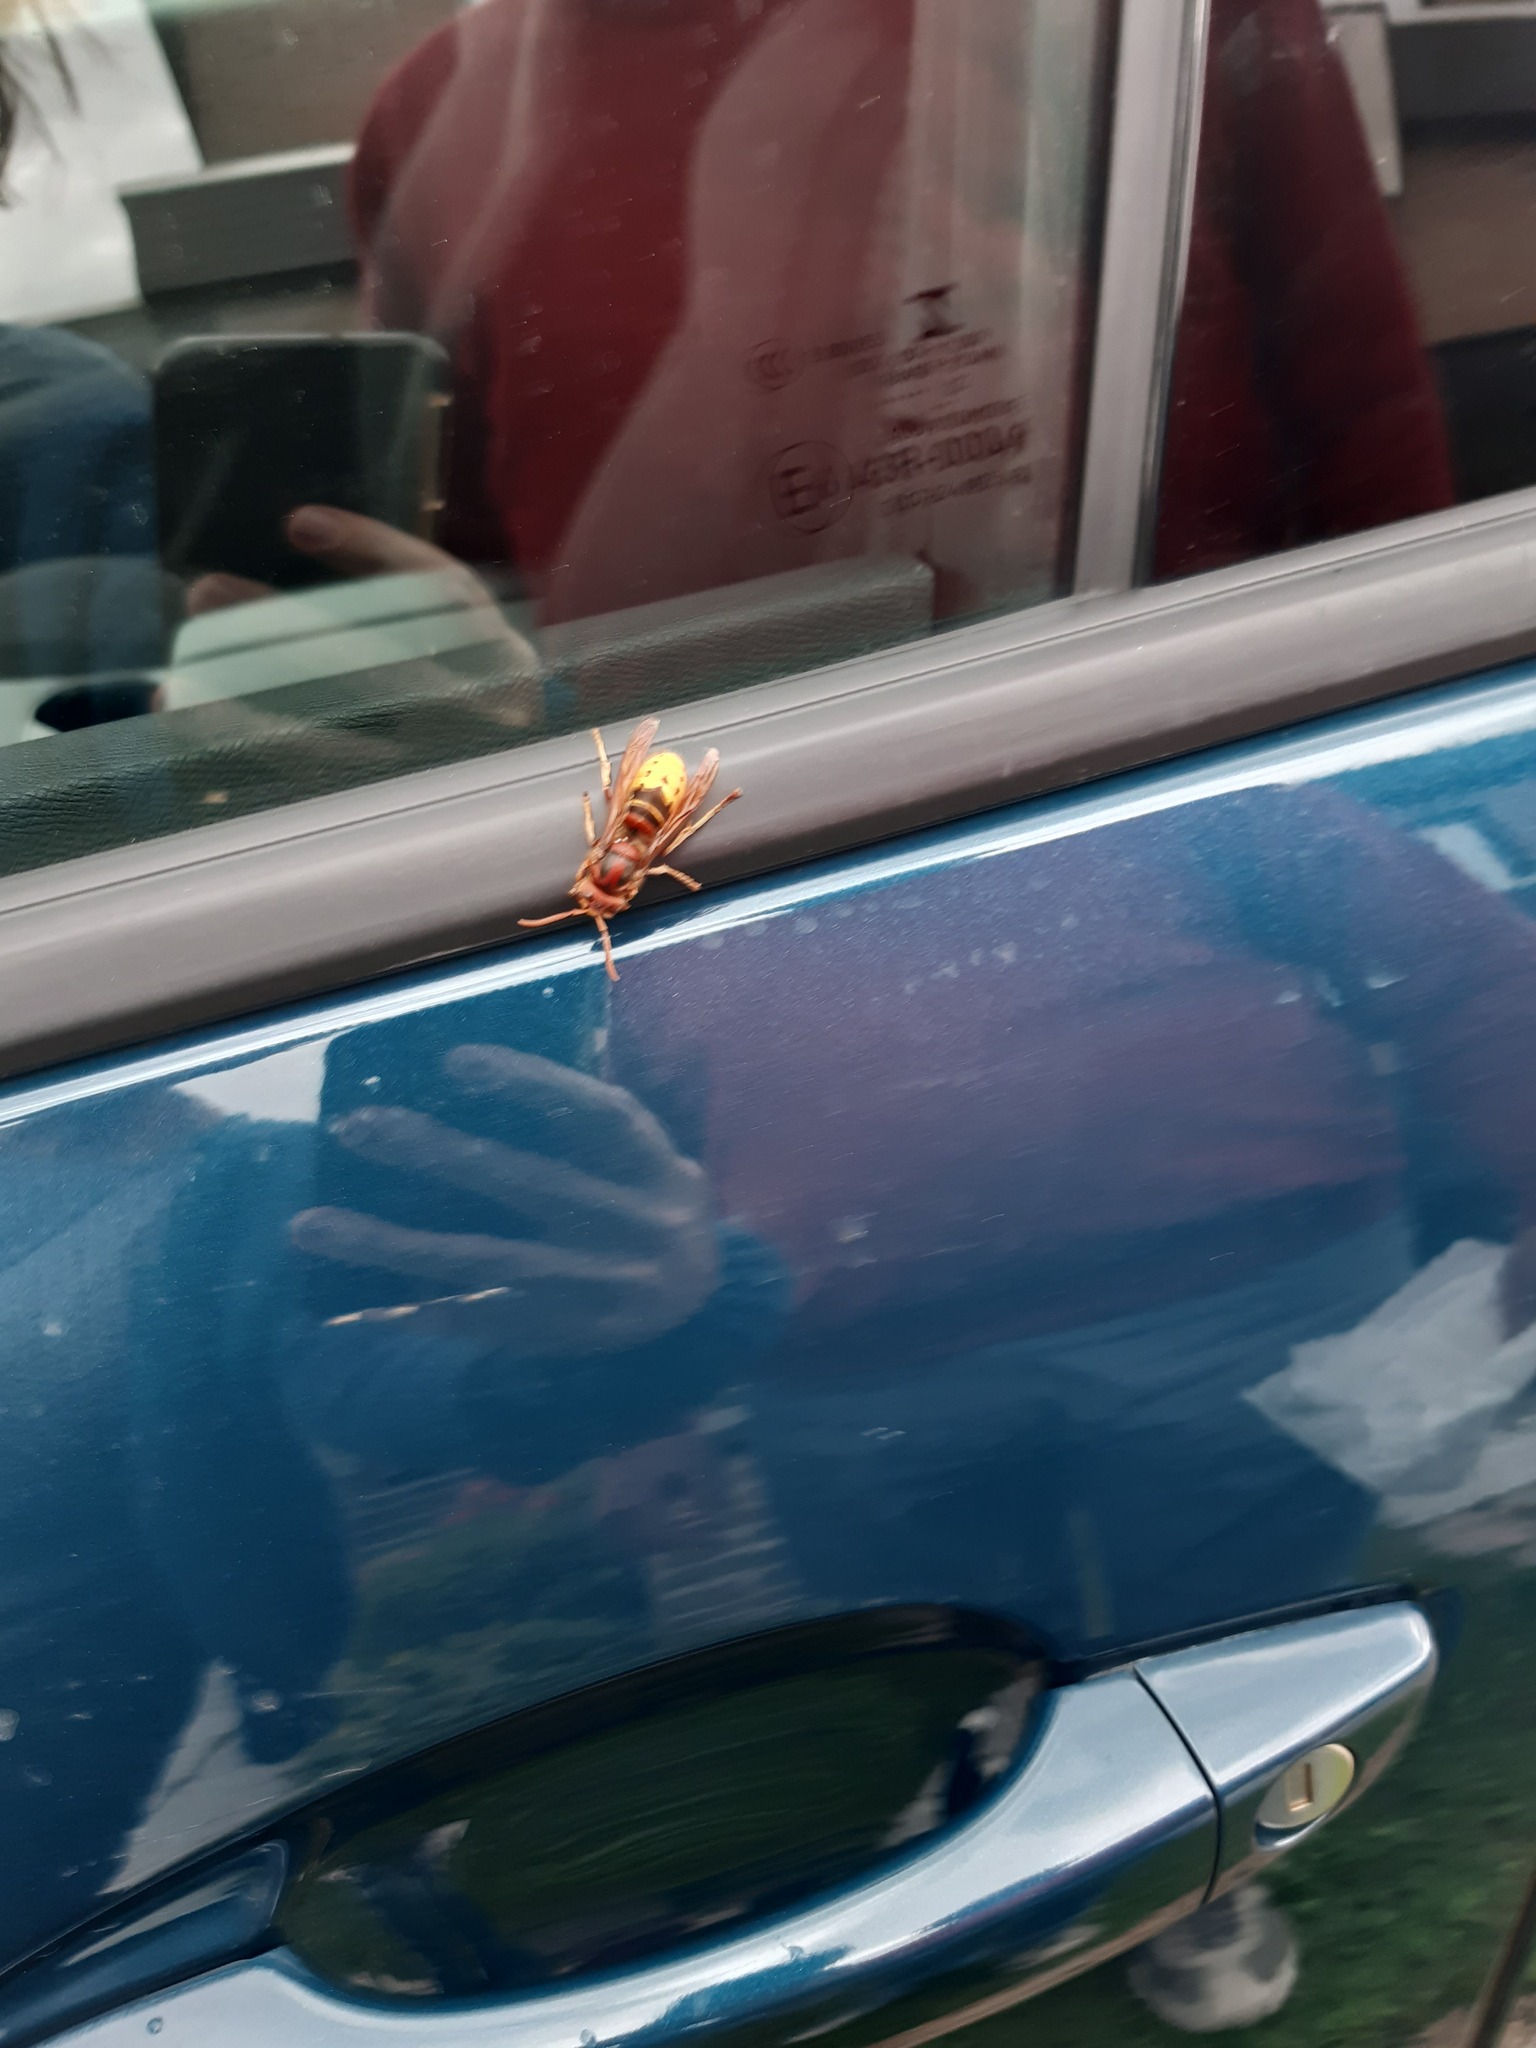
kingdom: Animalia
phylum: Arthropoda
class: Insecta
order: Hymenoptera
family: Vespidae
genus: Vespa
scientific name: Vespa crabro
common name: Hornet
